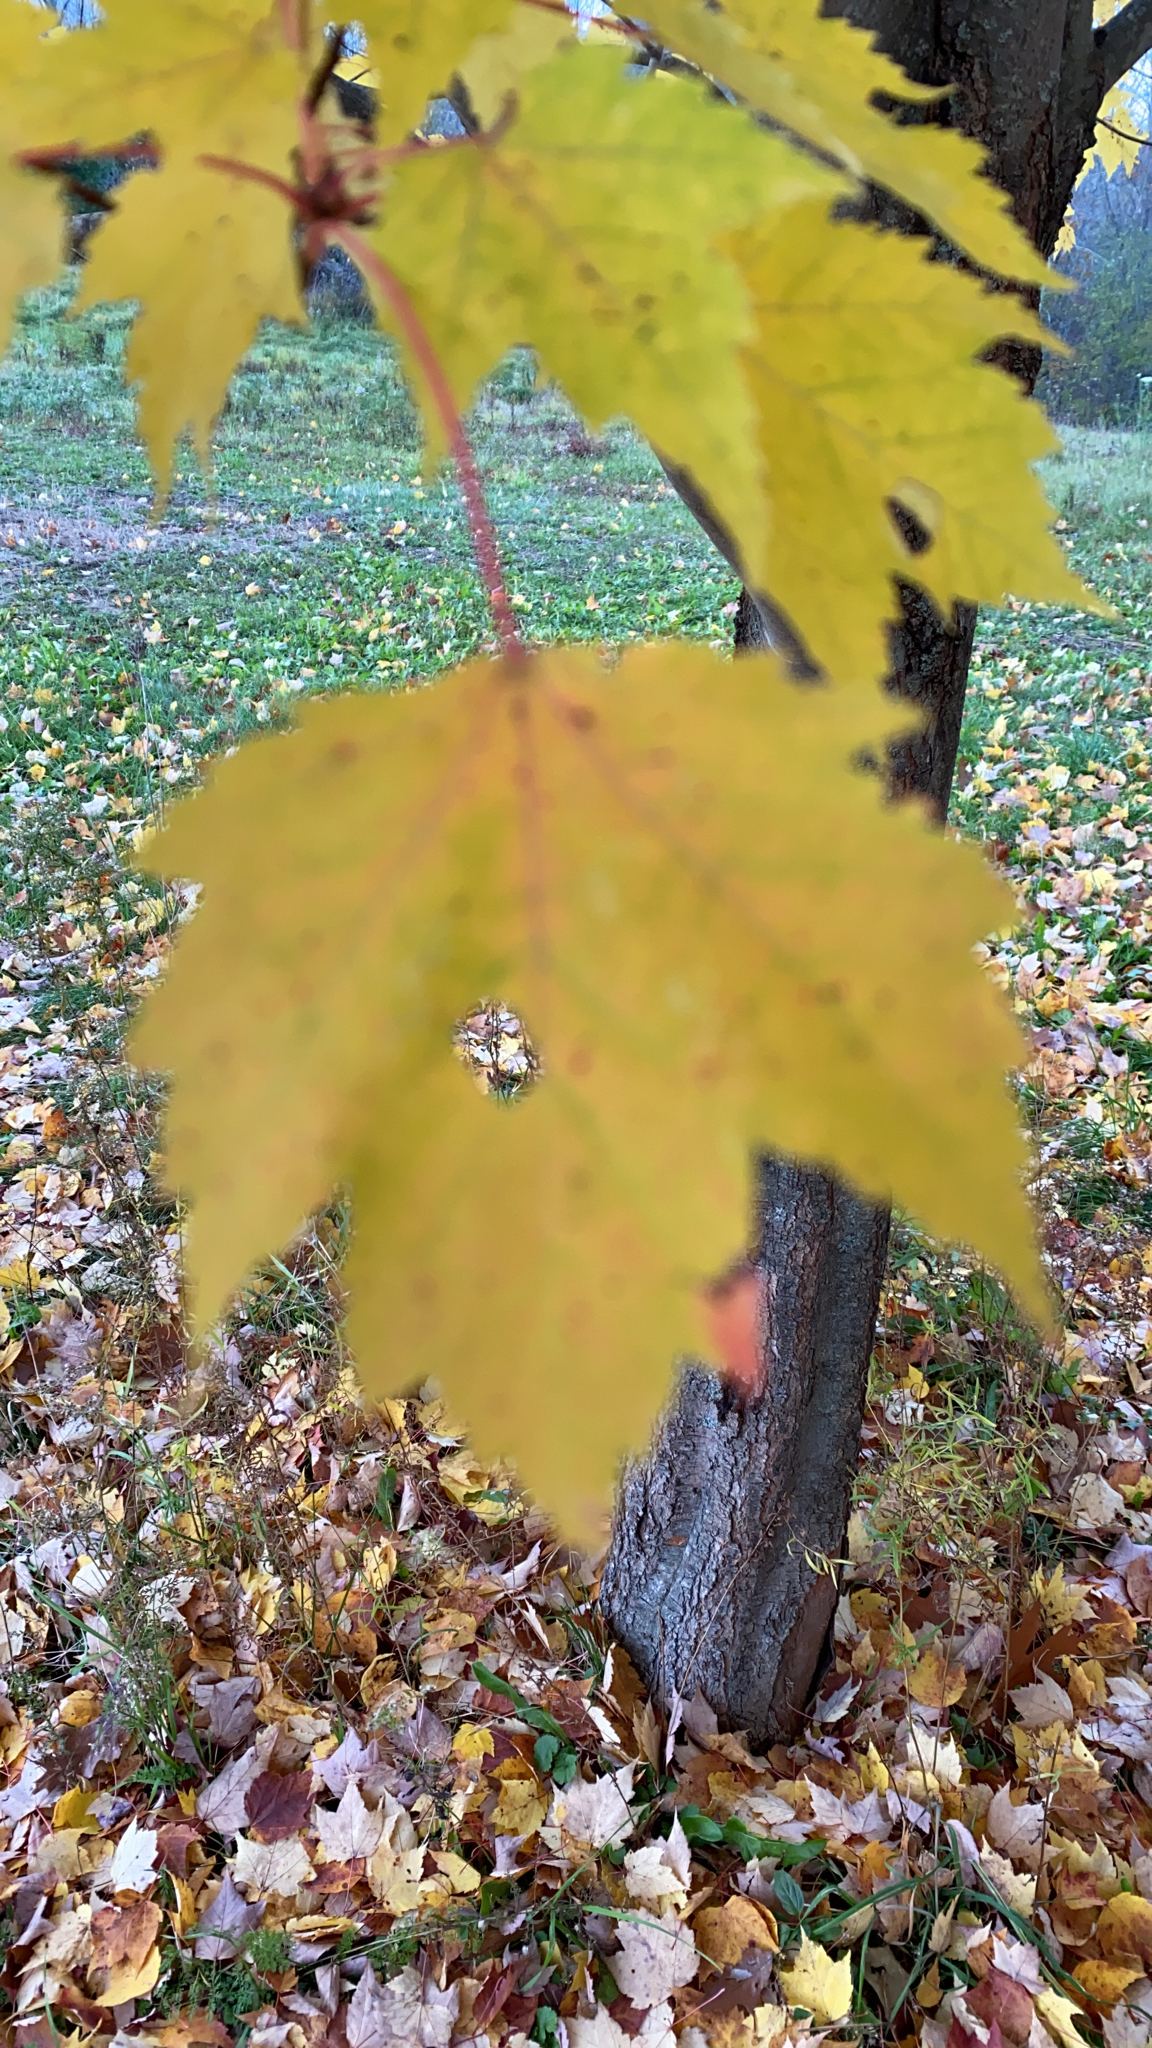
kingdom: Plantae
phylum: Tracheophyta
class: Magnoliopsida
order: Sapindales
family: Sapindaceae
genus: Acer
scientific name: Acer rubrum
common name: Red maple
